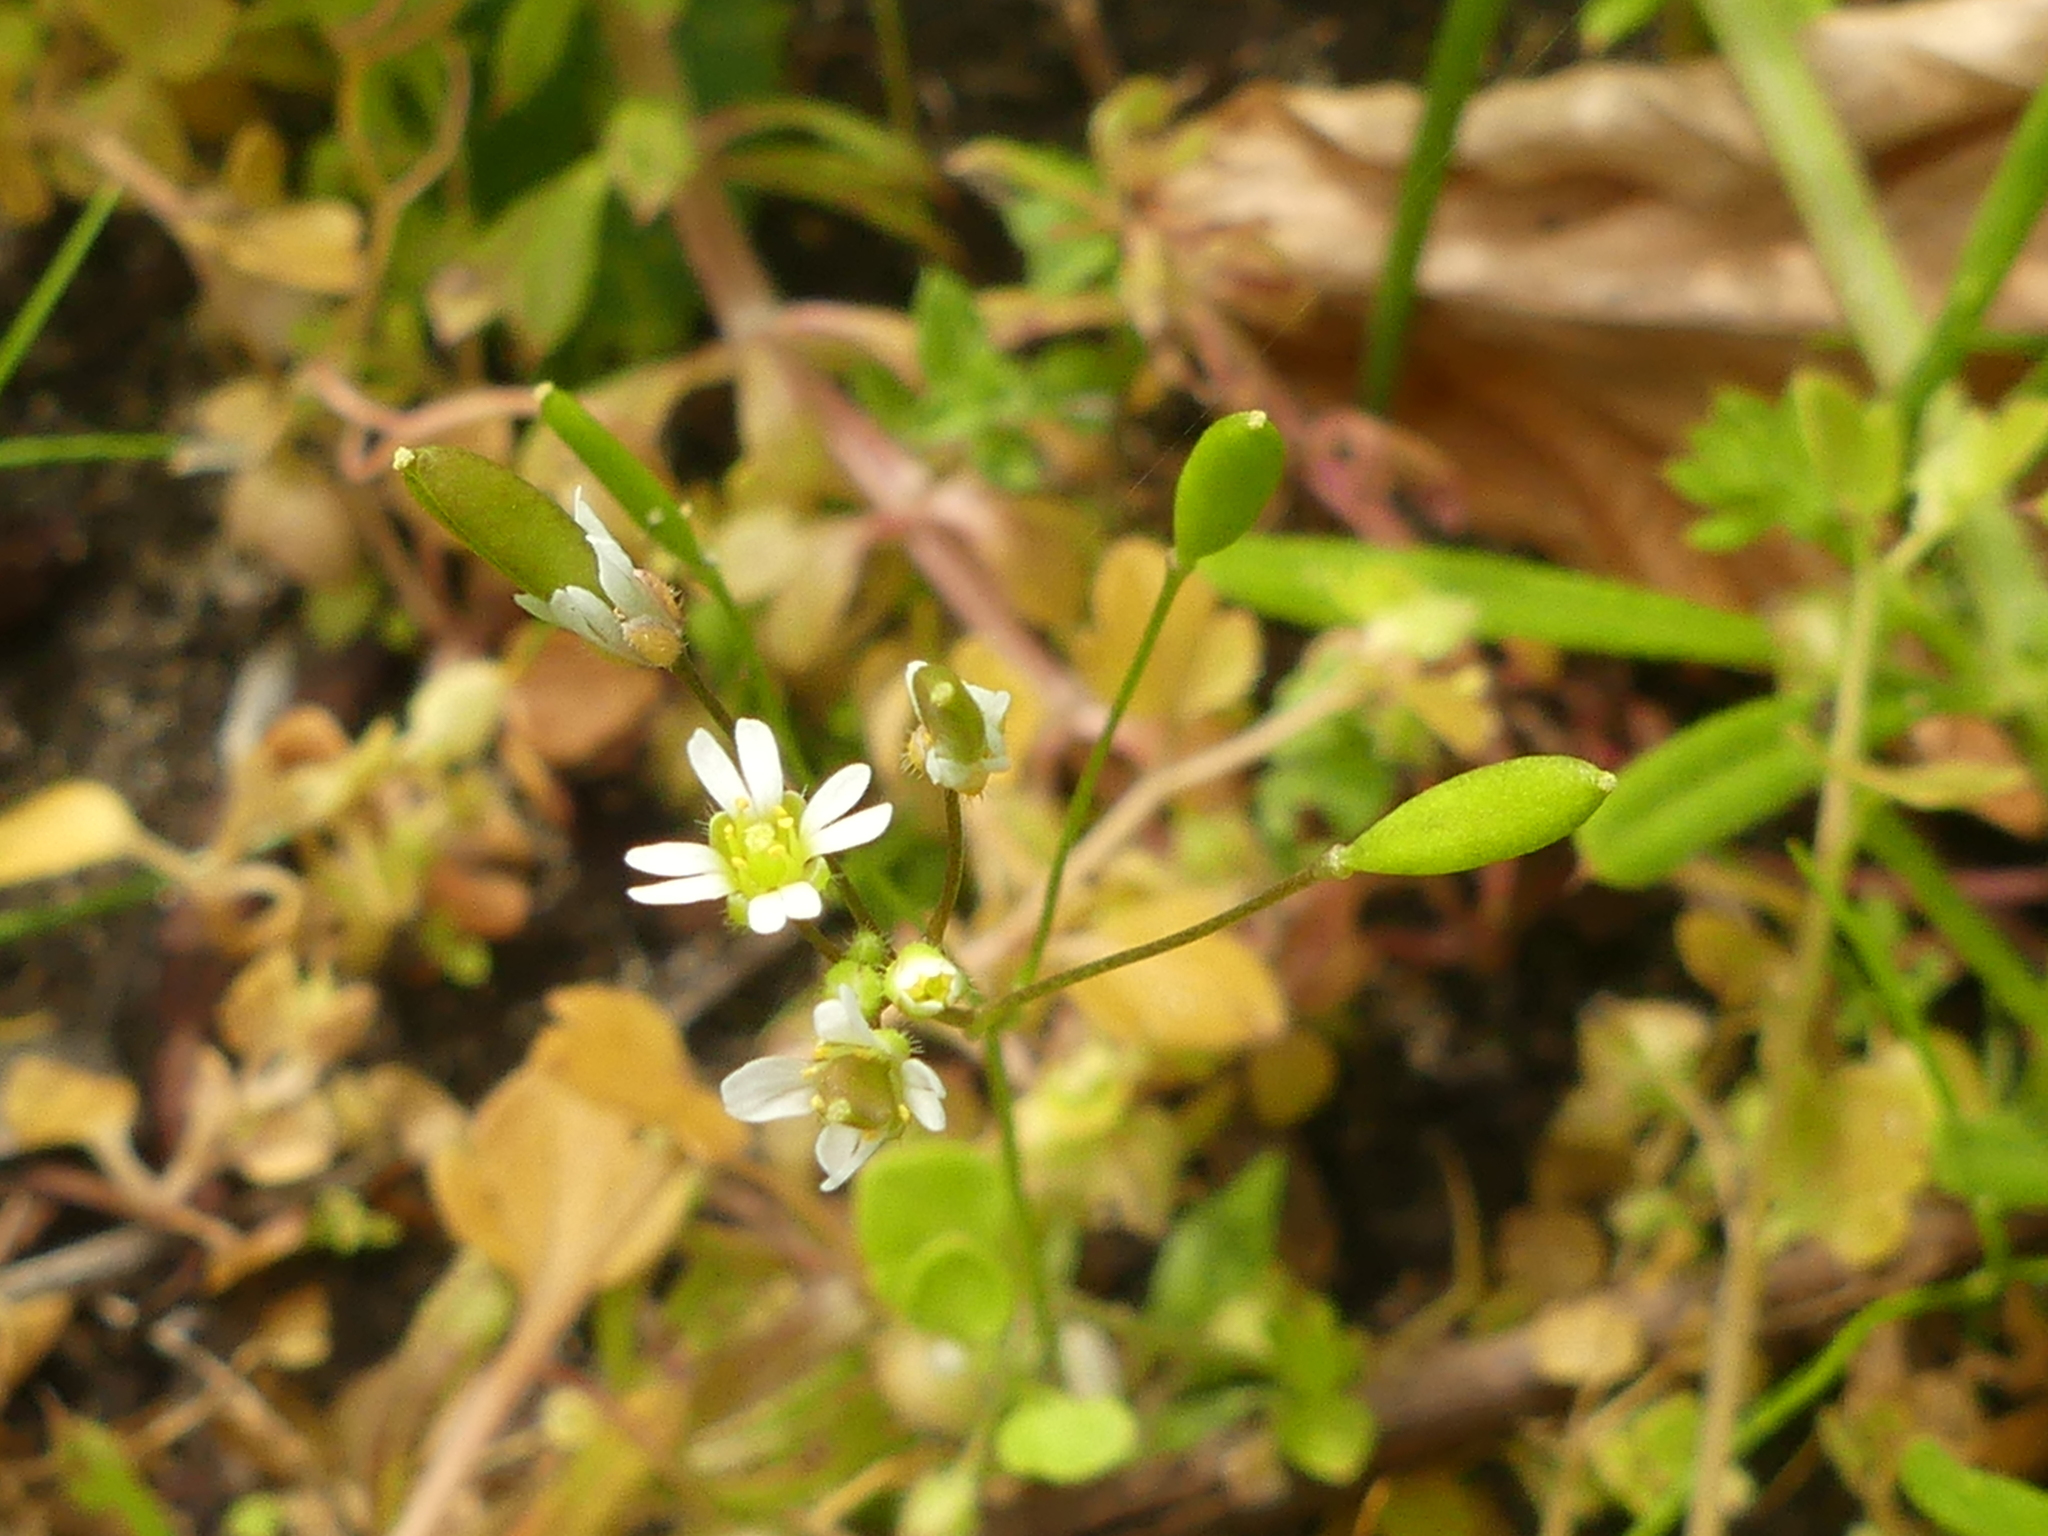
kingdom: Plantae
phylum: Tracheophyta
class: Magnoliopsida
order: Brassicales
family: Brassicaceae
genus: Draba
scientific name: Draba verna
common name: Spring draba
